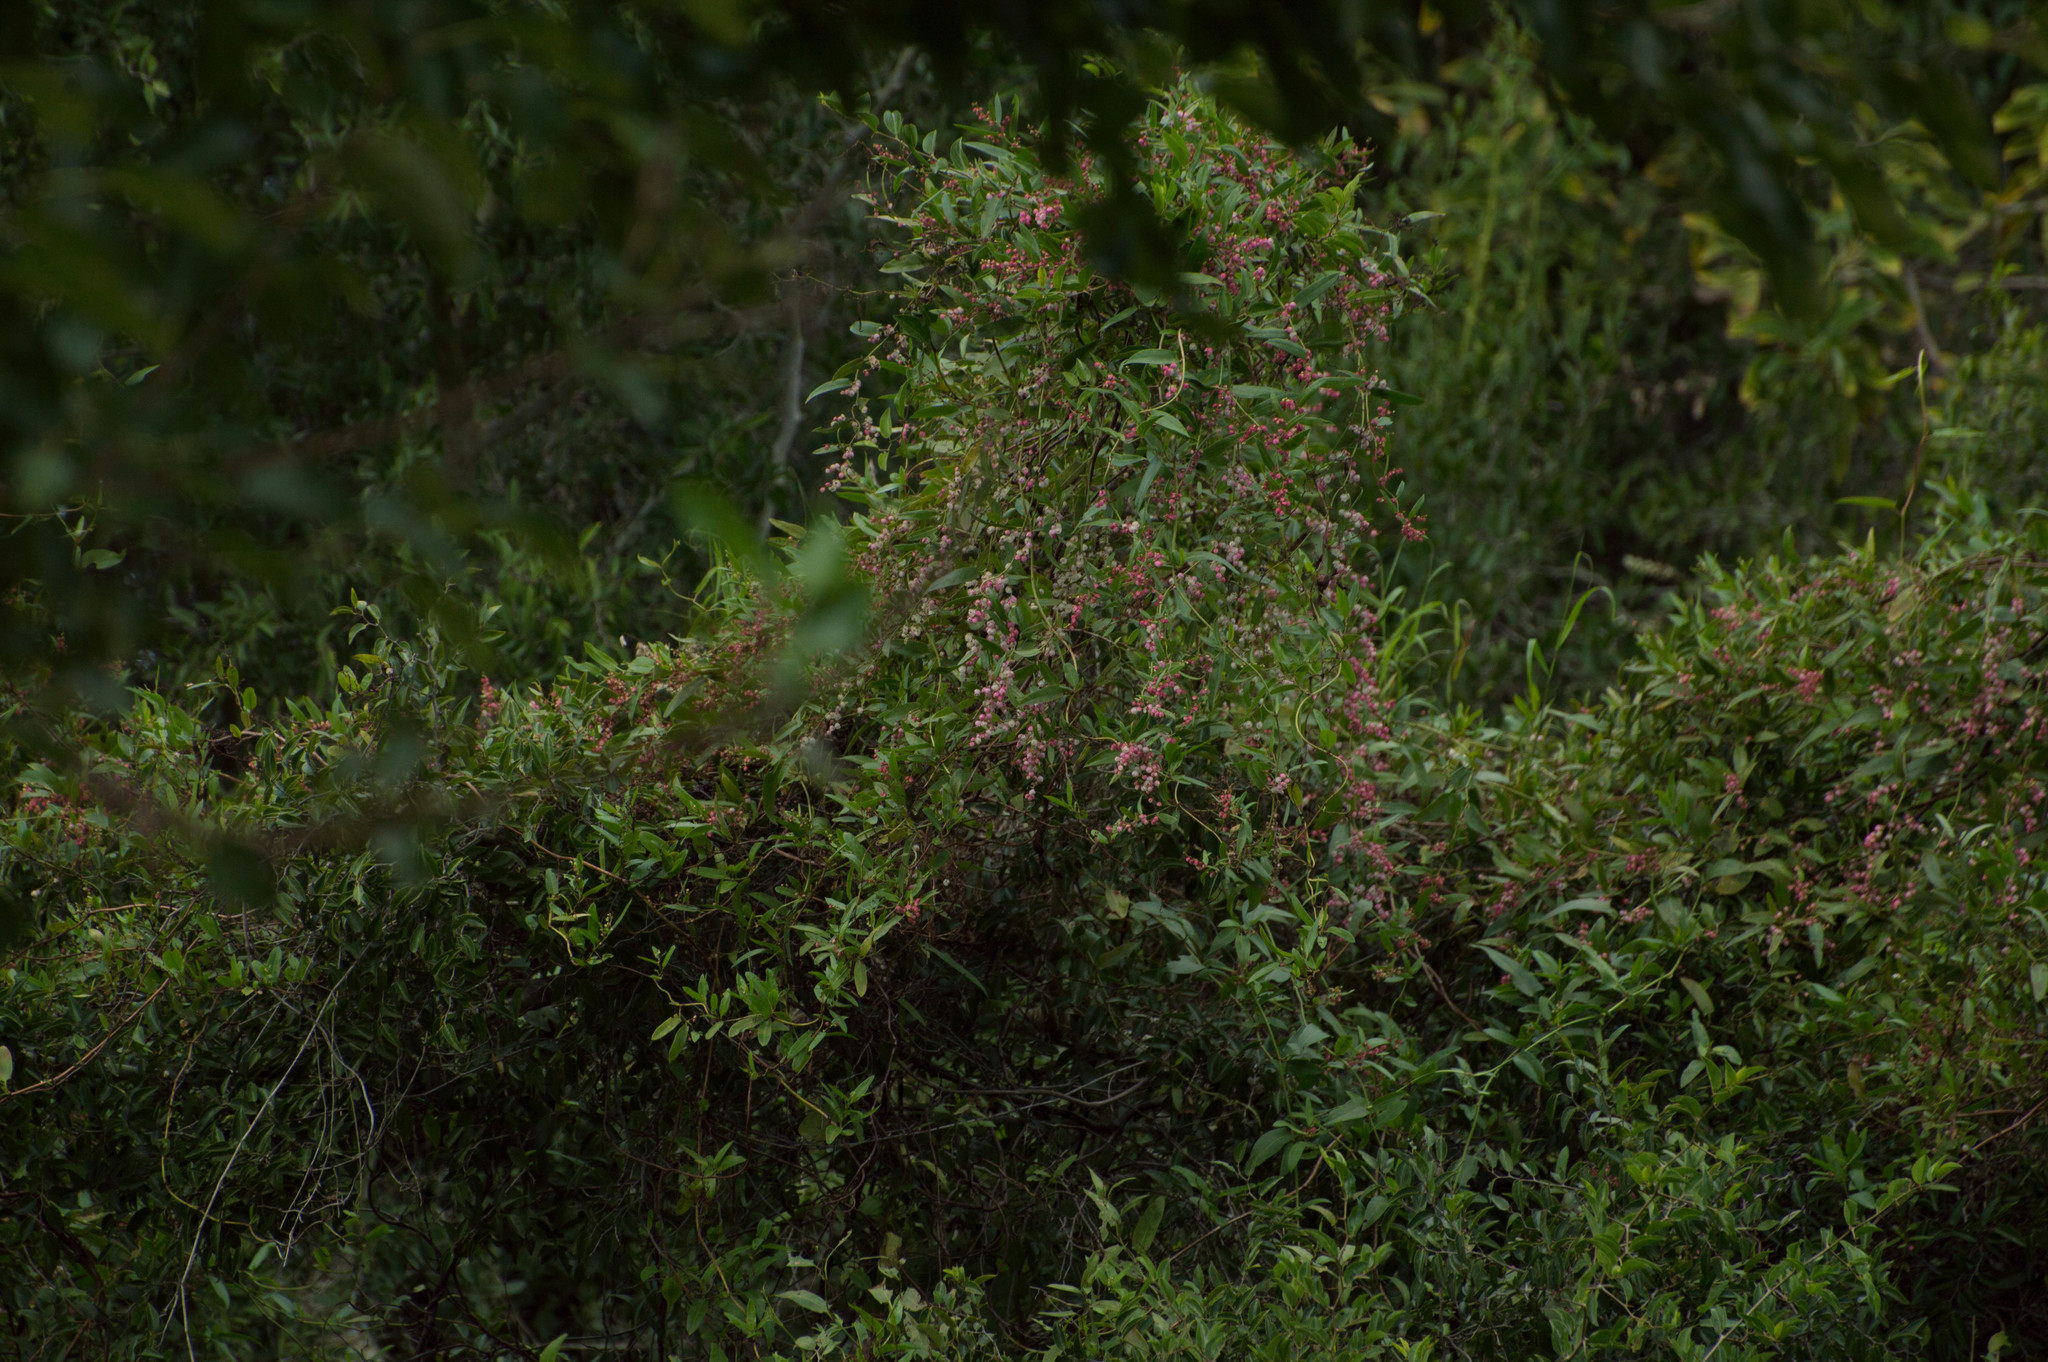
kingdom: Plantae
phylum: Tracheophyta
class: Magnoliopsida
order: Caryophyllales
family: Polygonaceae
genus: Muehlenbeckia
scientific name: Muehlenbeckia sagittifolia
